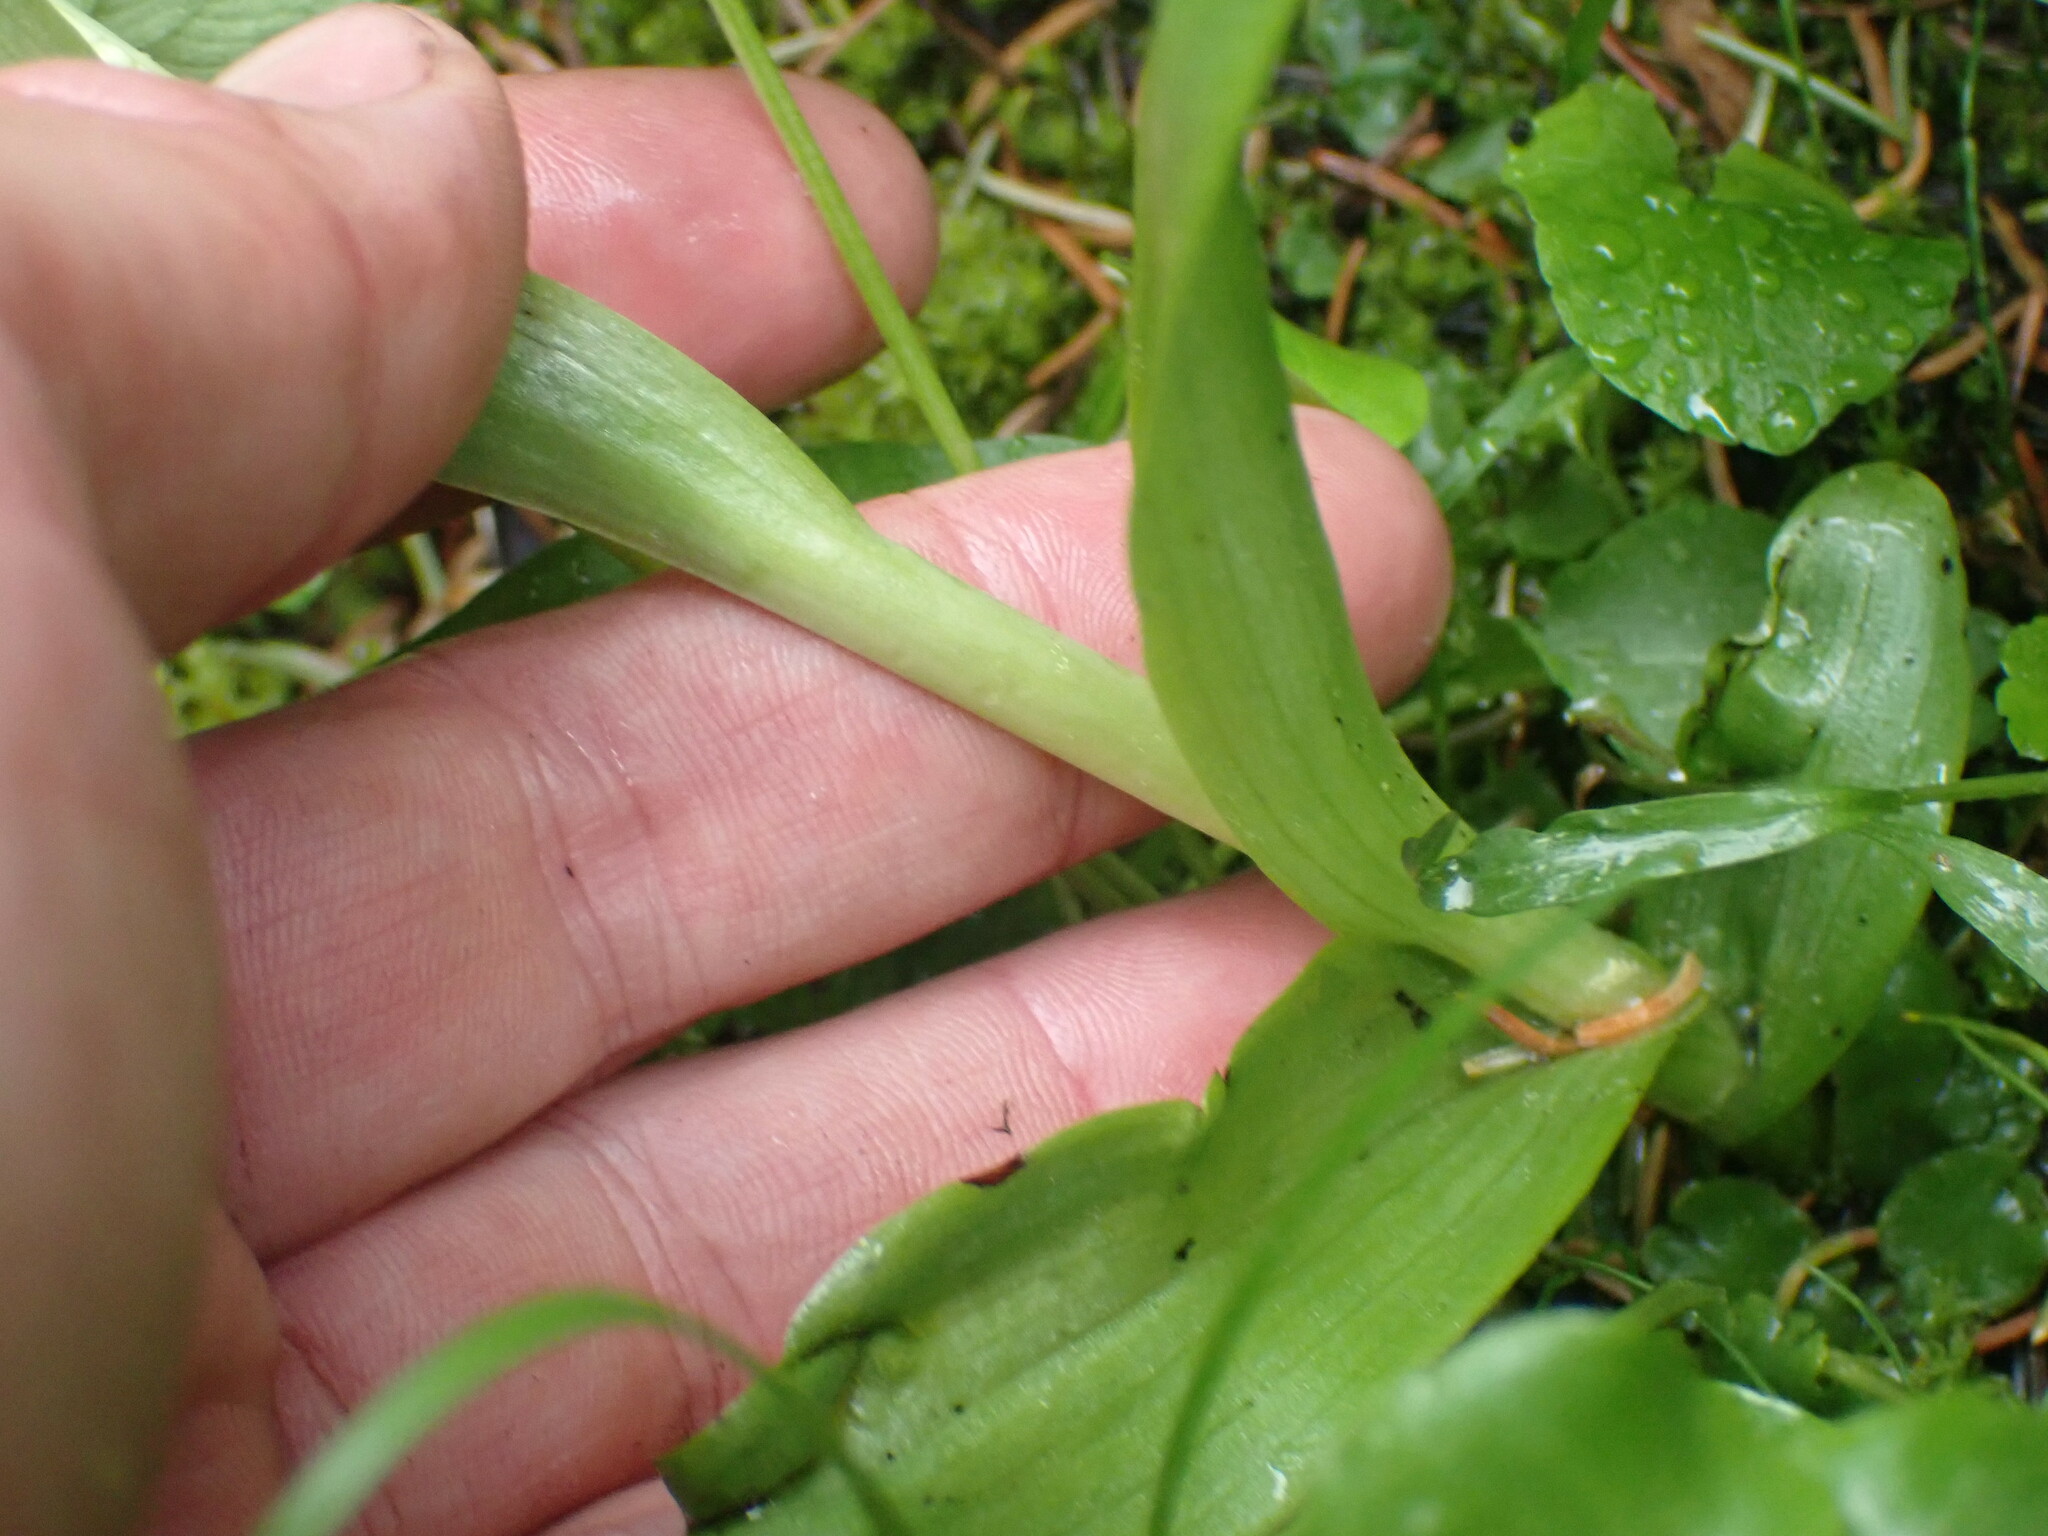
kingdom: Plantae
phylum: Tracheophyta
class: Liliopsida
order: Asparagales
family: Orchidaceae
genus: Platanthera
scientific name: Platanthera huronensis
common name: Fragrant green orchid
